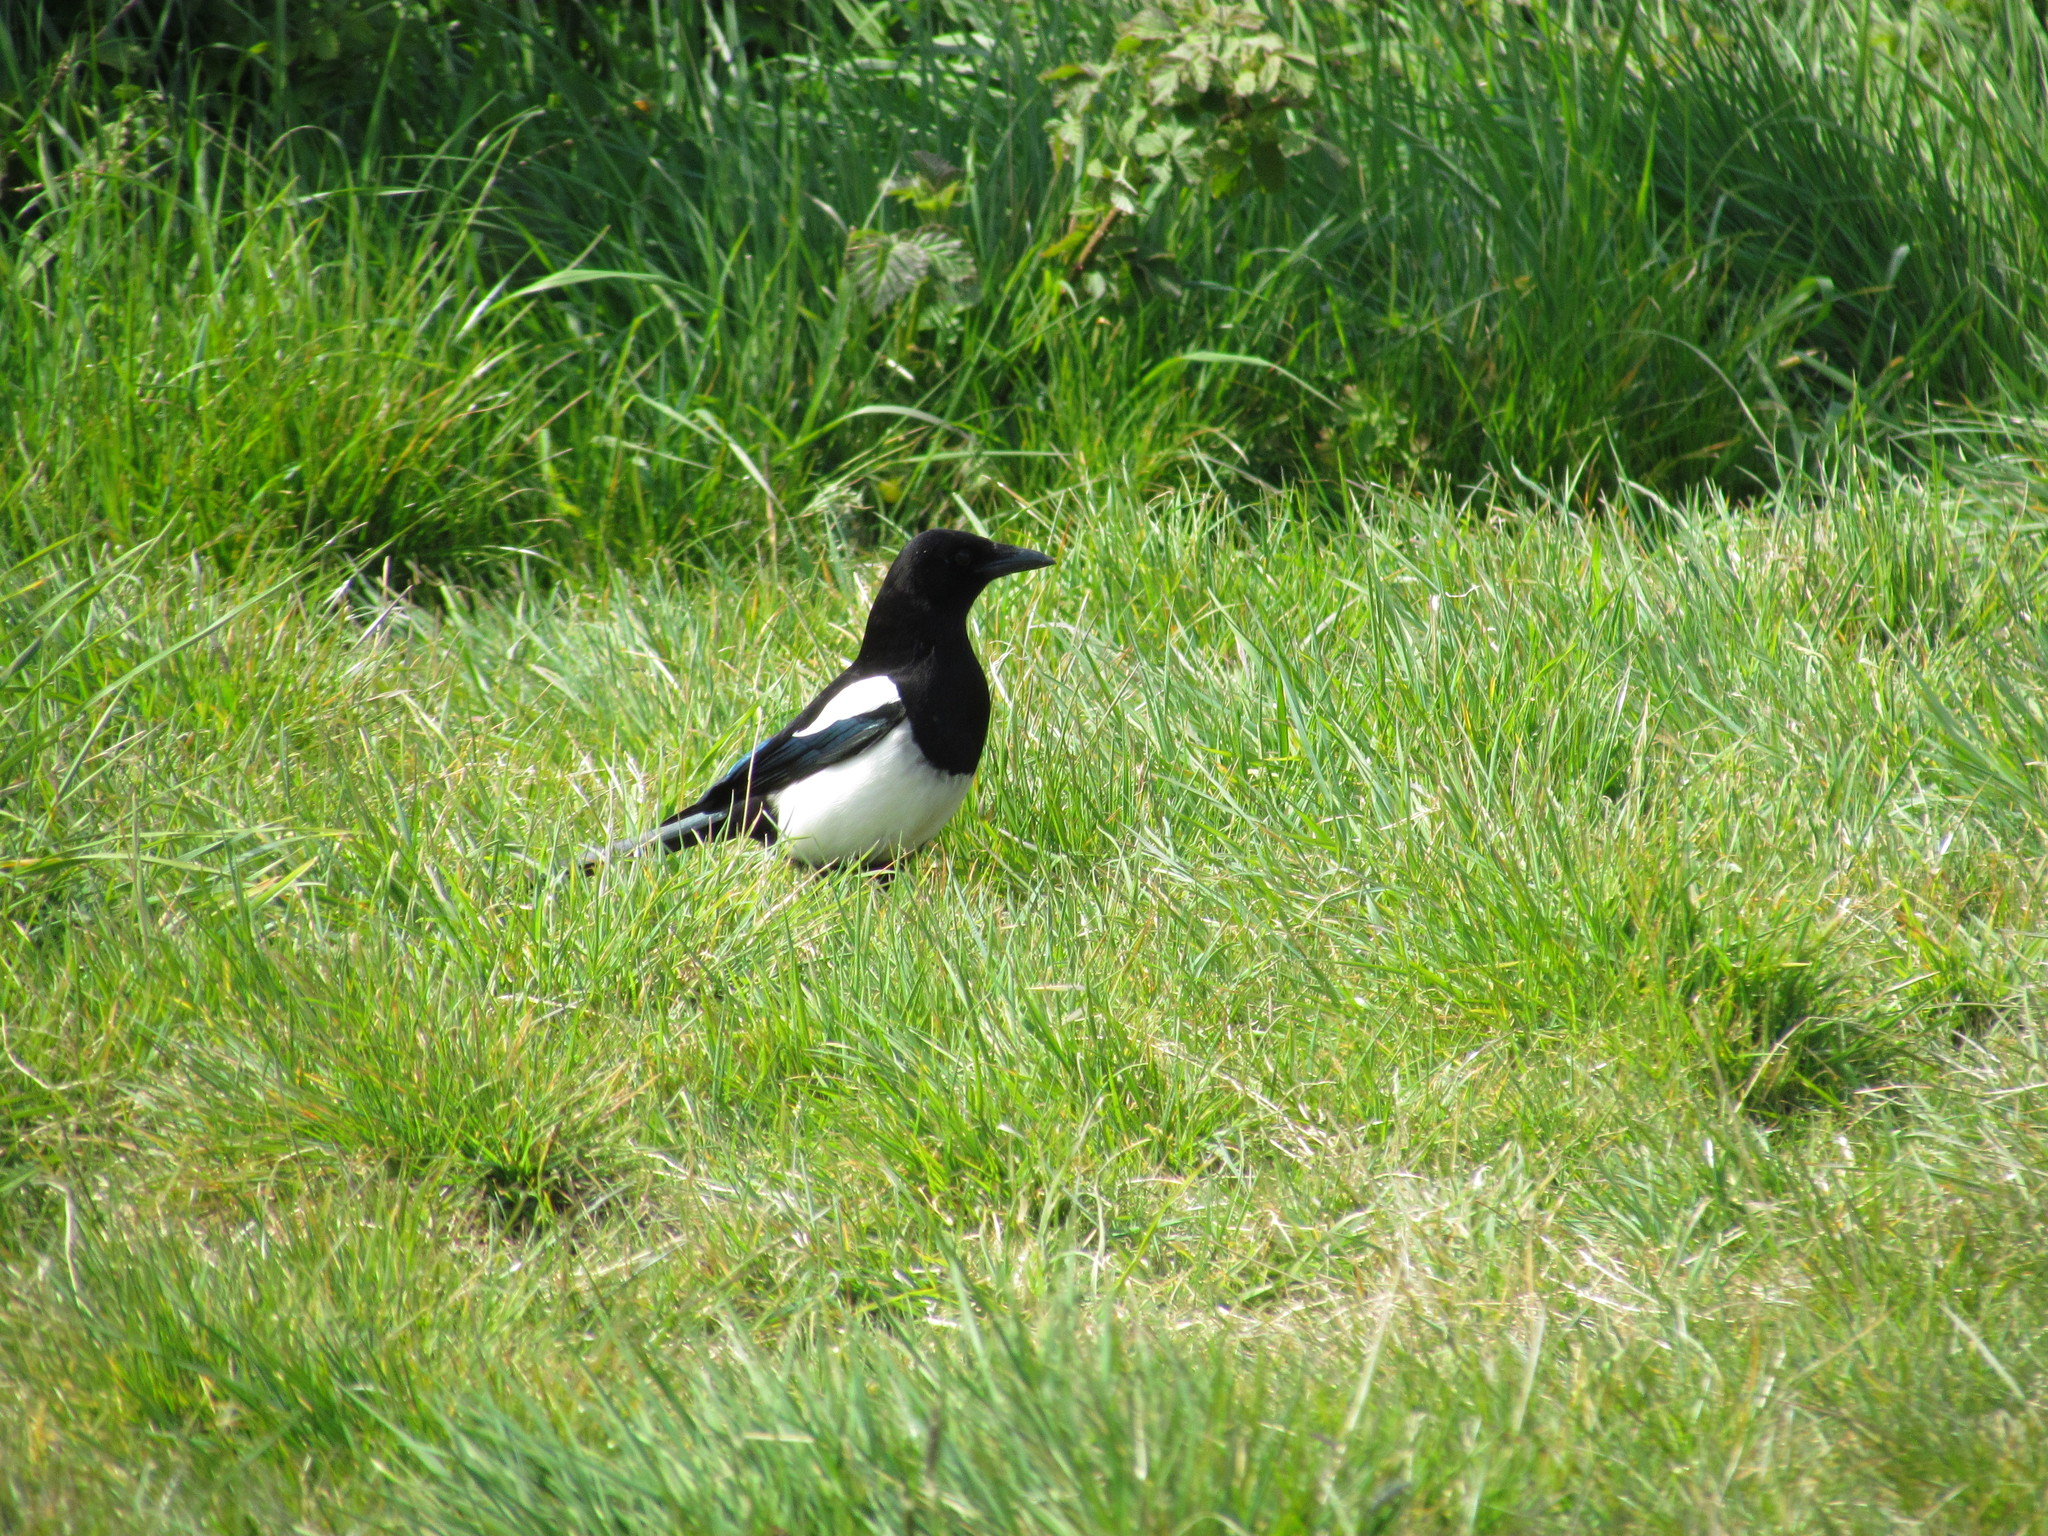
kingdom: Animalia
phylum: Chordata
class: Aves
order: Passeriformes
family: Corvidae
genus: Pica
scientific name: Pica pica
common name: Eurasian magpie
